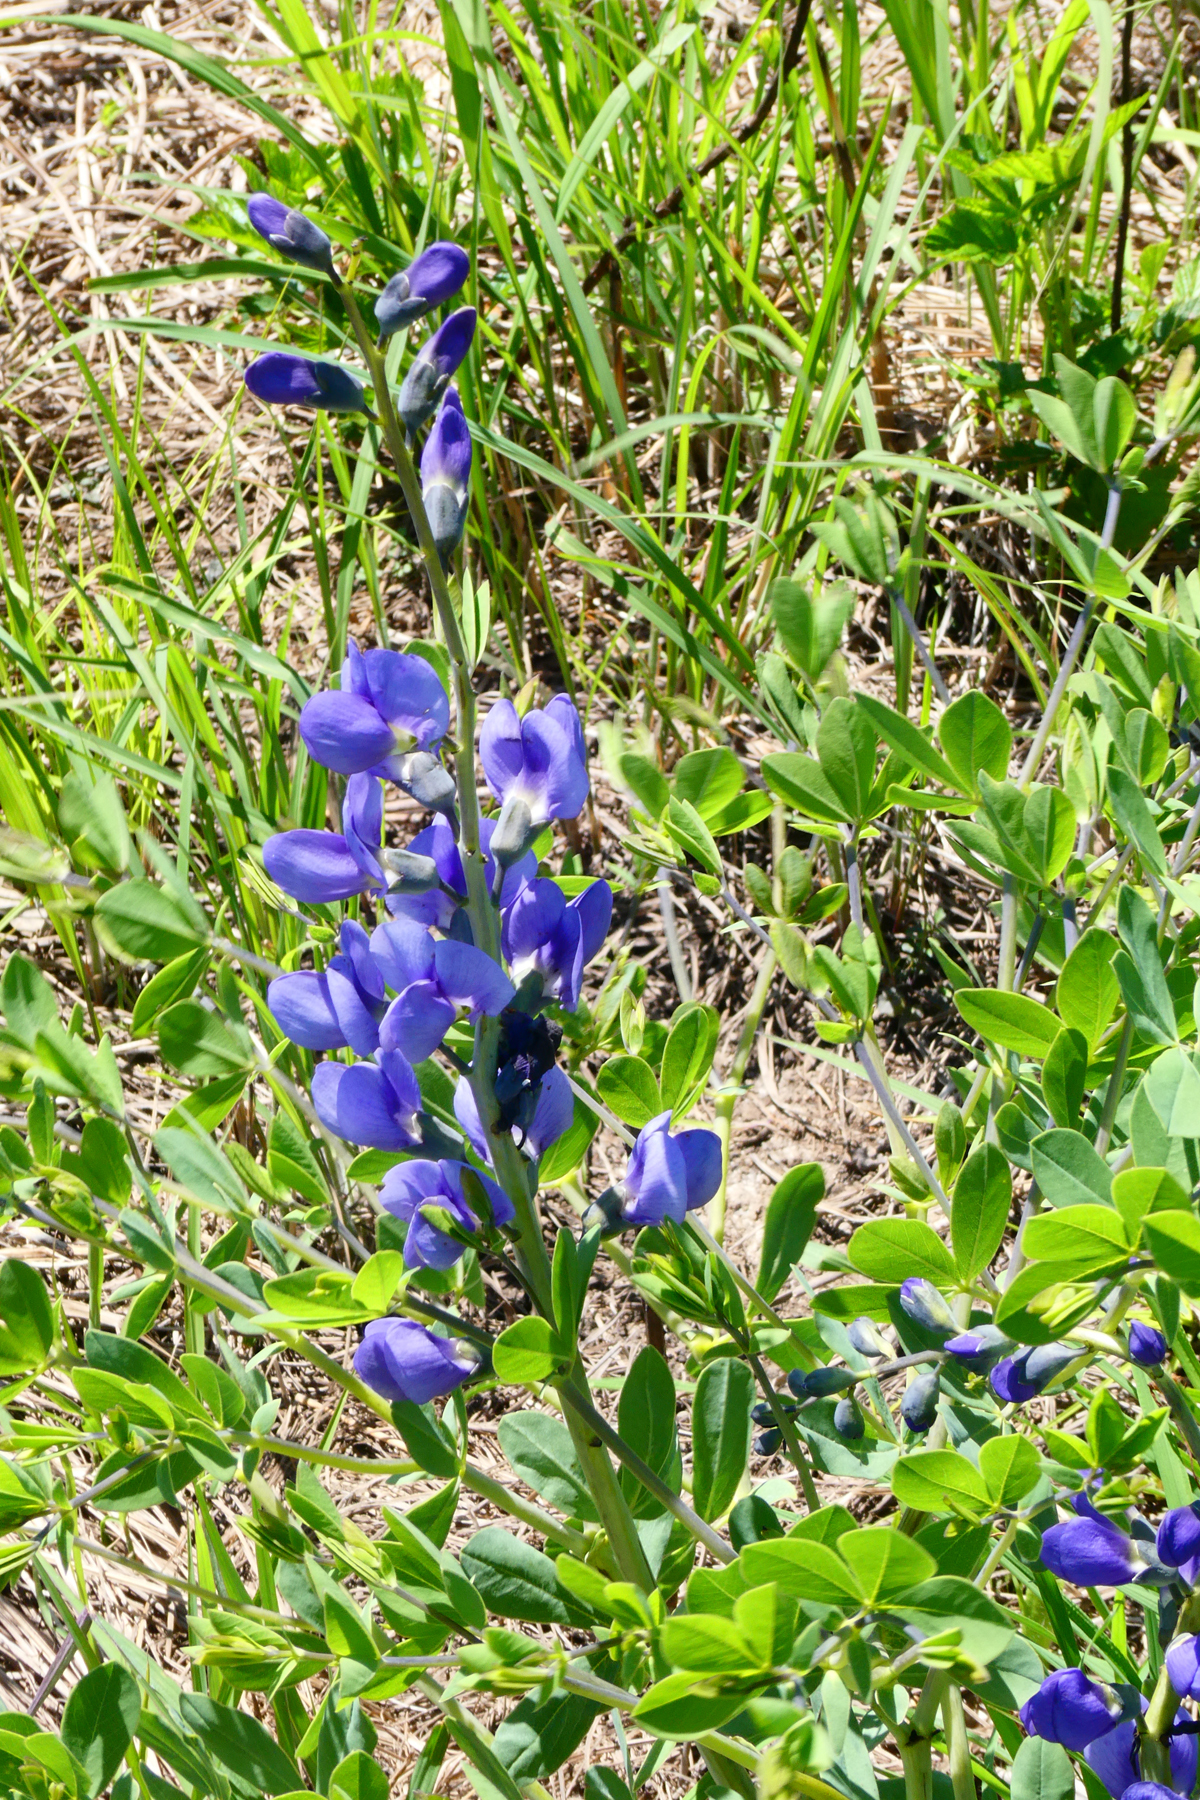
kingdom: Plantae
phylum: Tracheophyta
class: Magnoliopsida
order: Fabales
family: Fabaceae
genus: Baptisia
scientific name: Baptisia australis
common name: Blue false indigo
